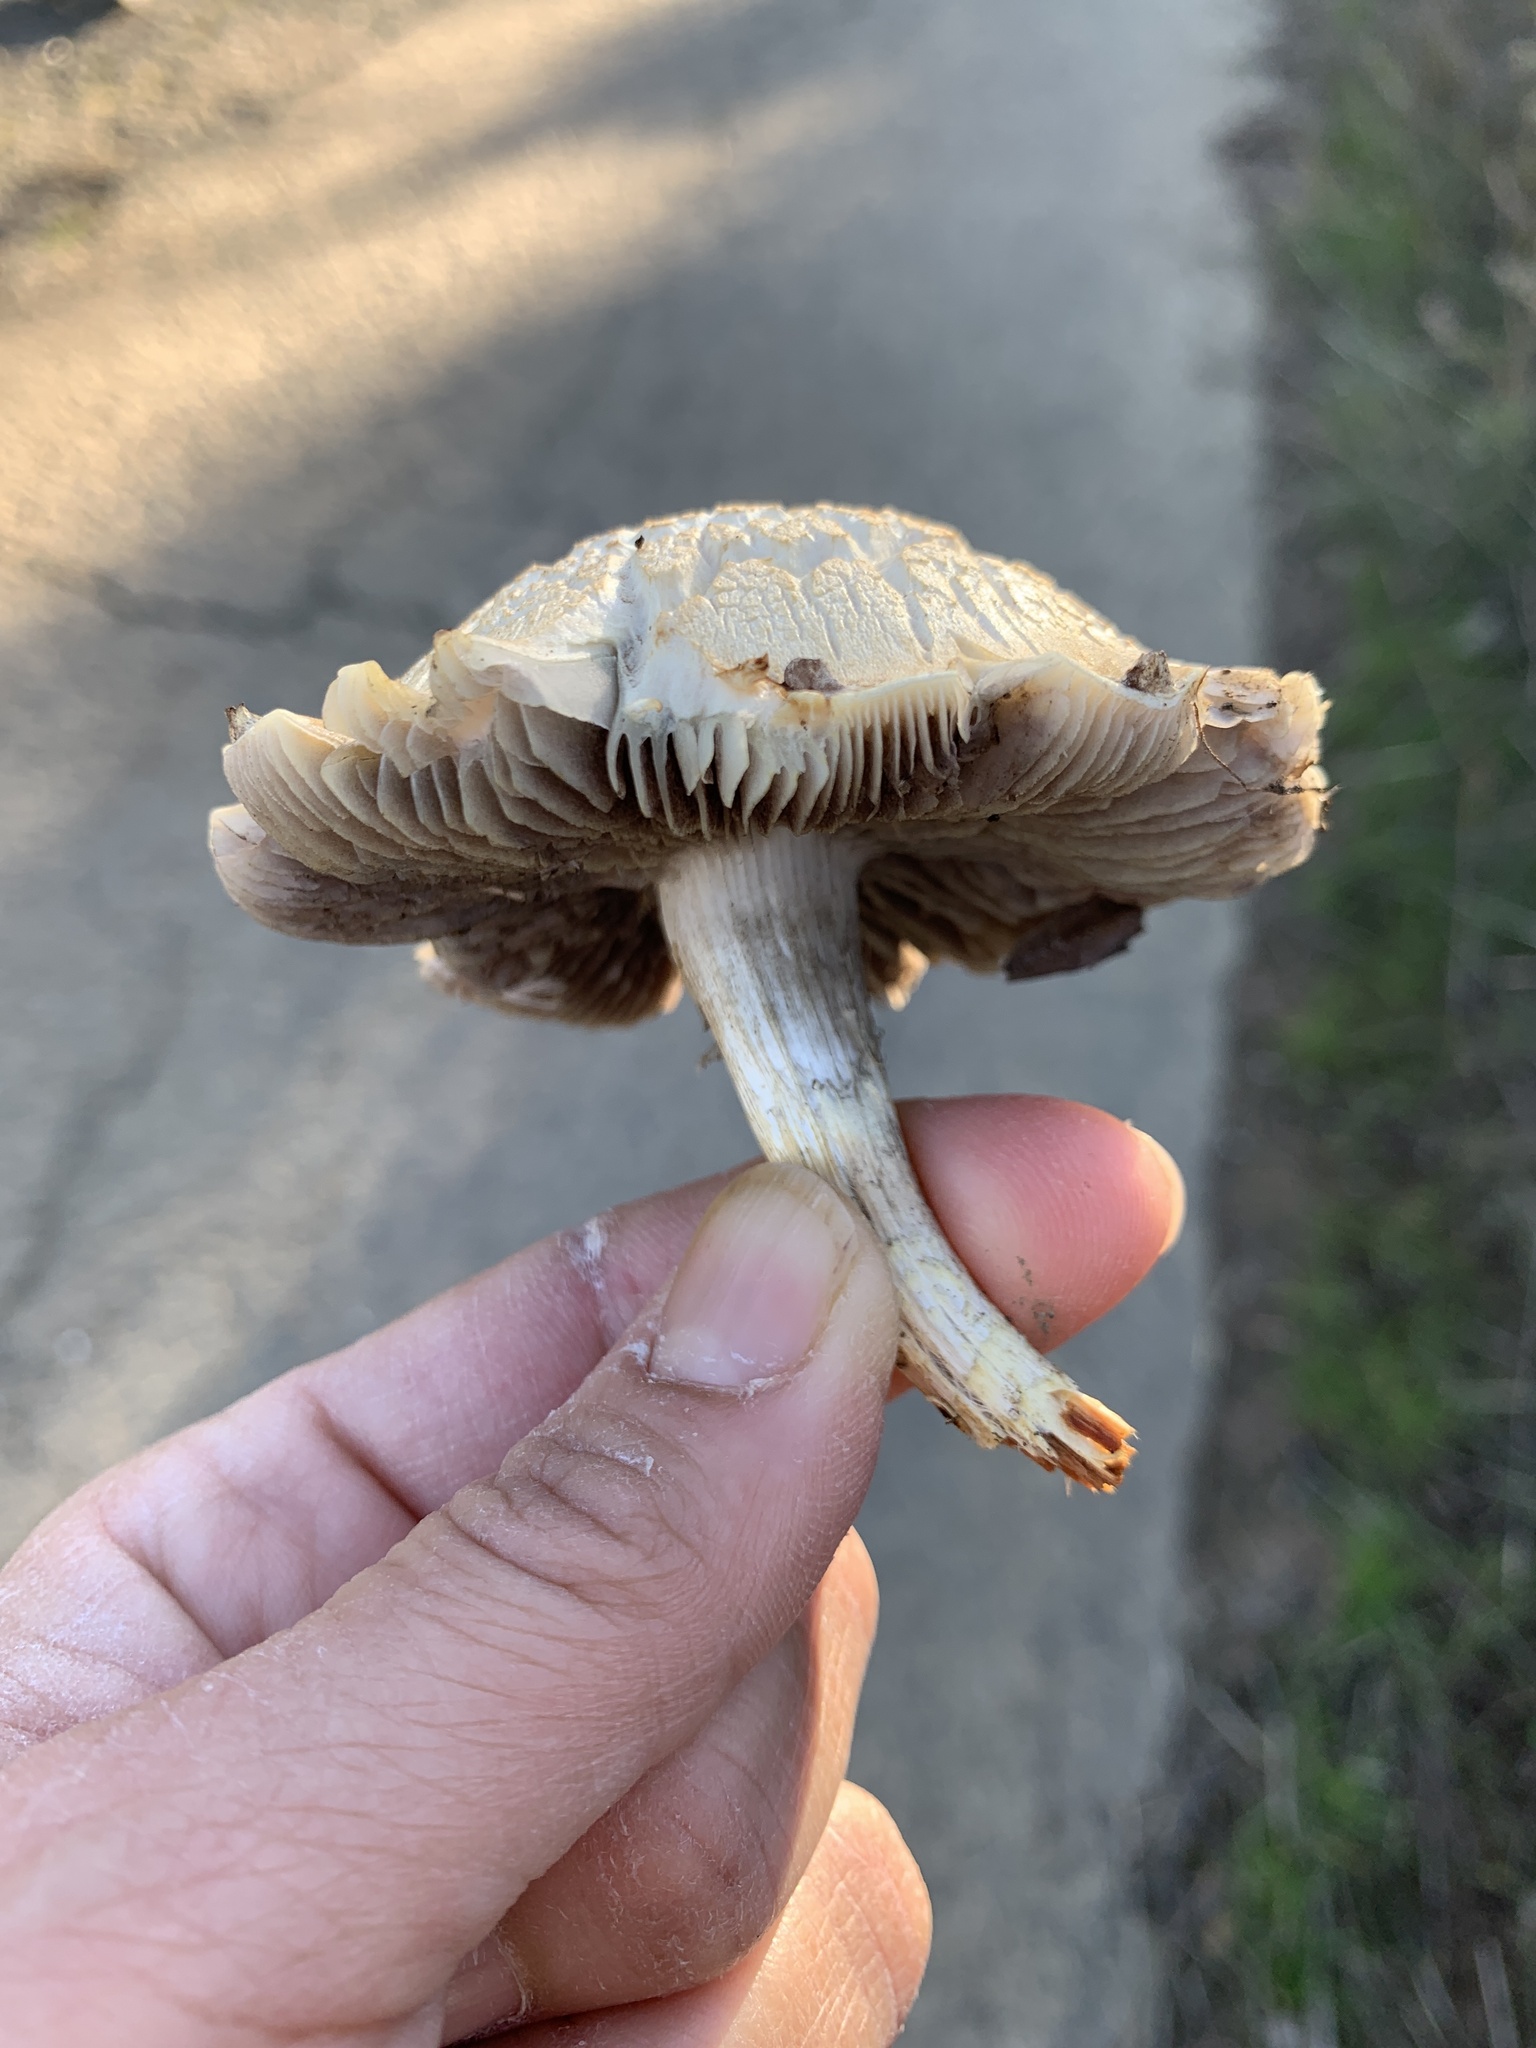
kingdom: Fungi
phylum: Basidiomycota
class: Agaricomycetes
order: Agaricales
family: Strophariaceae
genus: Leratiomyces
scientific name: Leratiomyces percevalii
